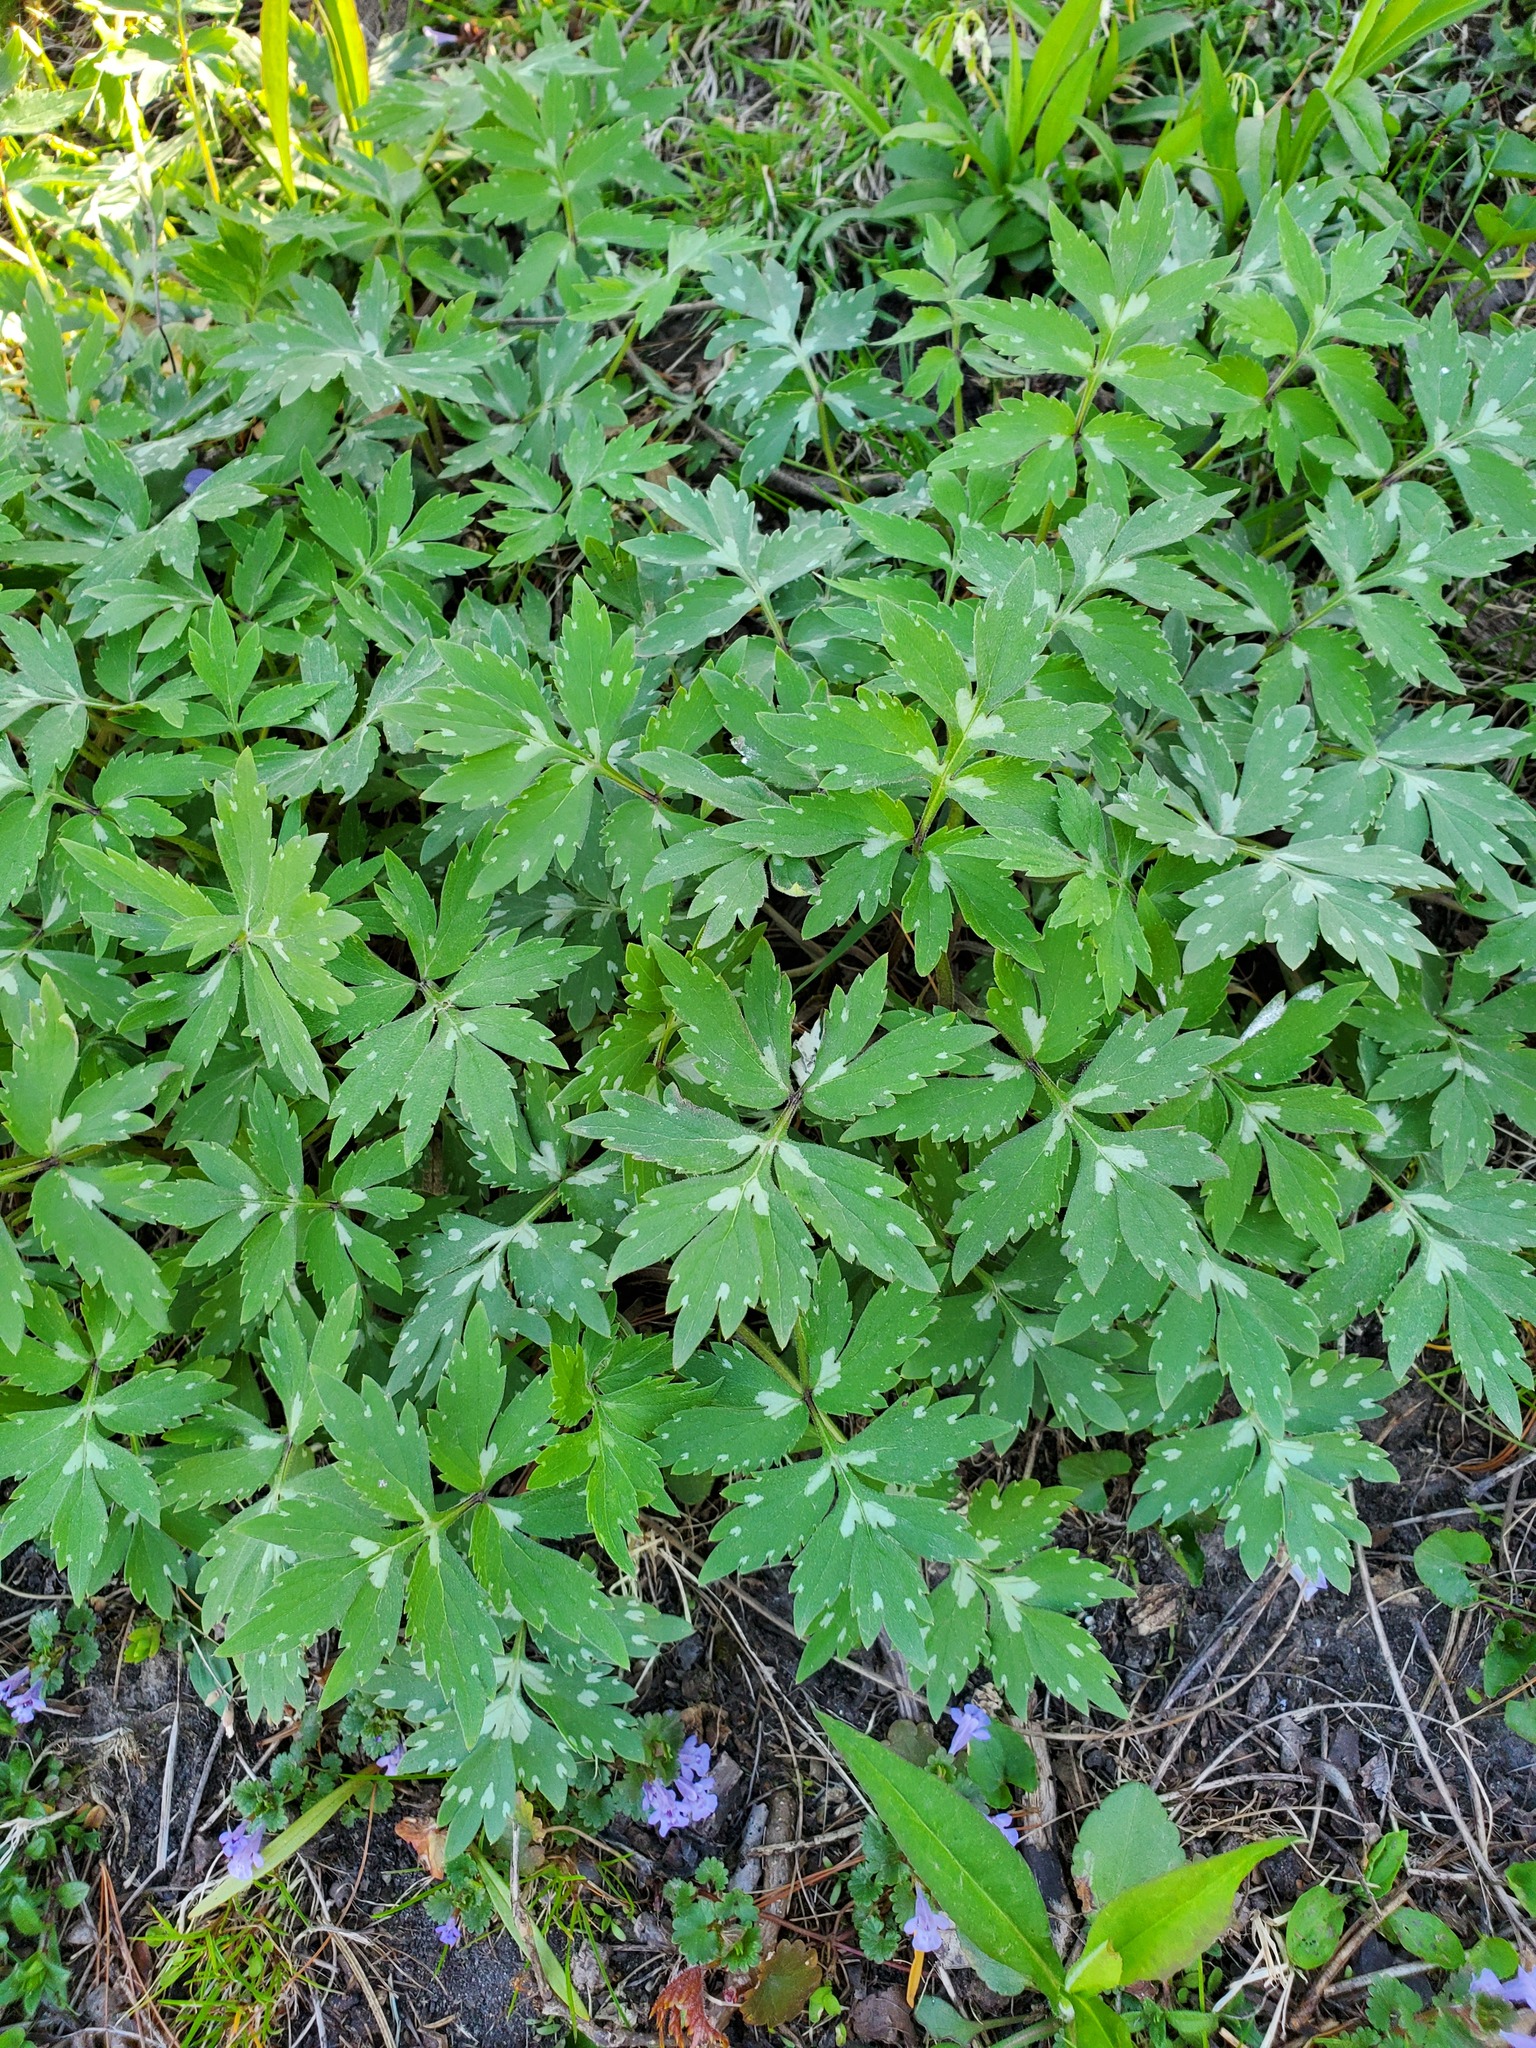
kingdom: Plantae
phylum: Tracheophyta
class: Magnoliopsida
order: Boraginales
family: Hydrophyllaceae
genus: Hydrophyllum
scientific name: Hydrophyllum virginianum
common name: Virginia waterleaf
